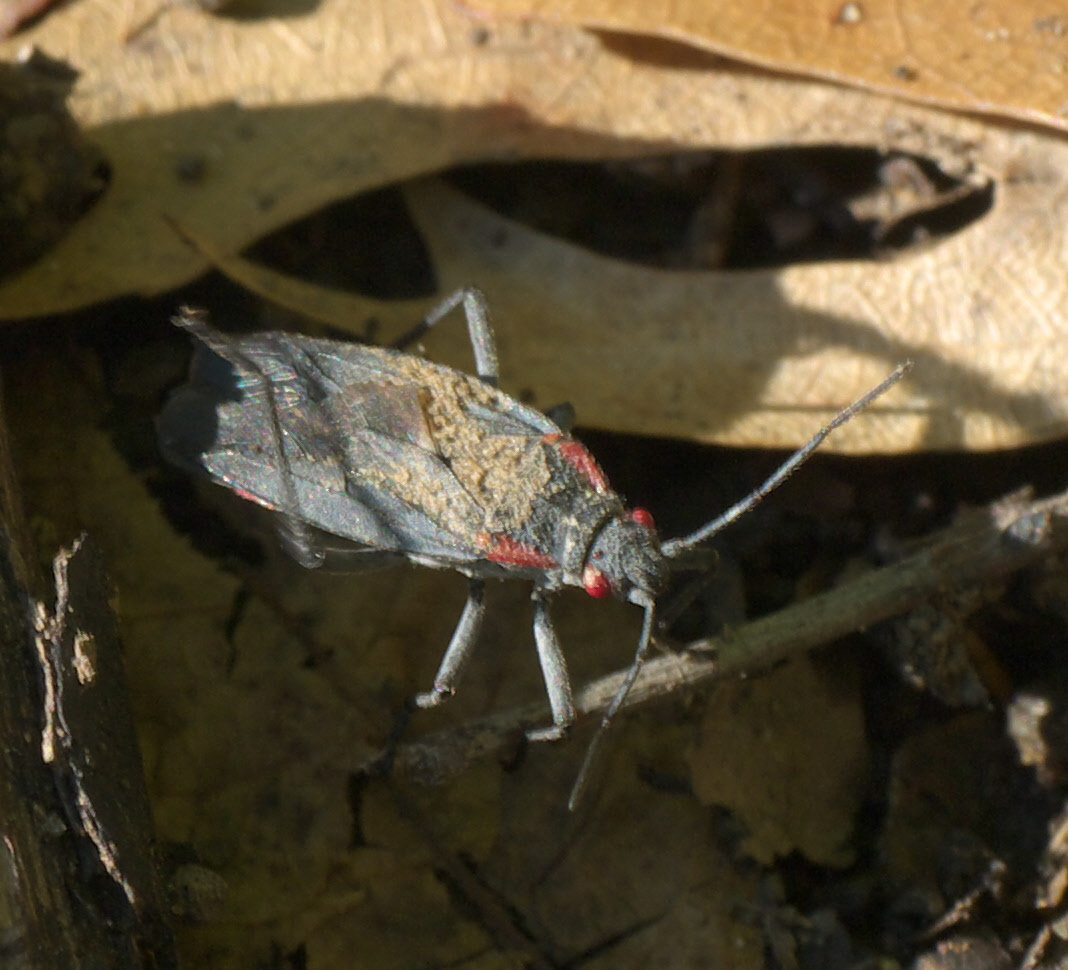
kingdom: Animalia
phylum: Arthropoda
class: Insecta
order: Hemiptera
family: Rhopalidae
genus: Jadera
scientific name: Jadera haematoloma
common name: Red-shouldered bug
